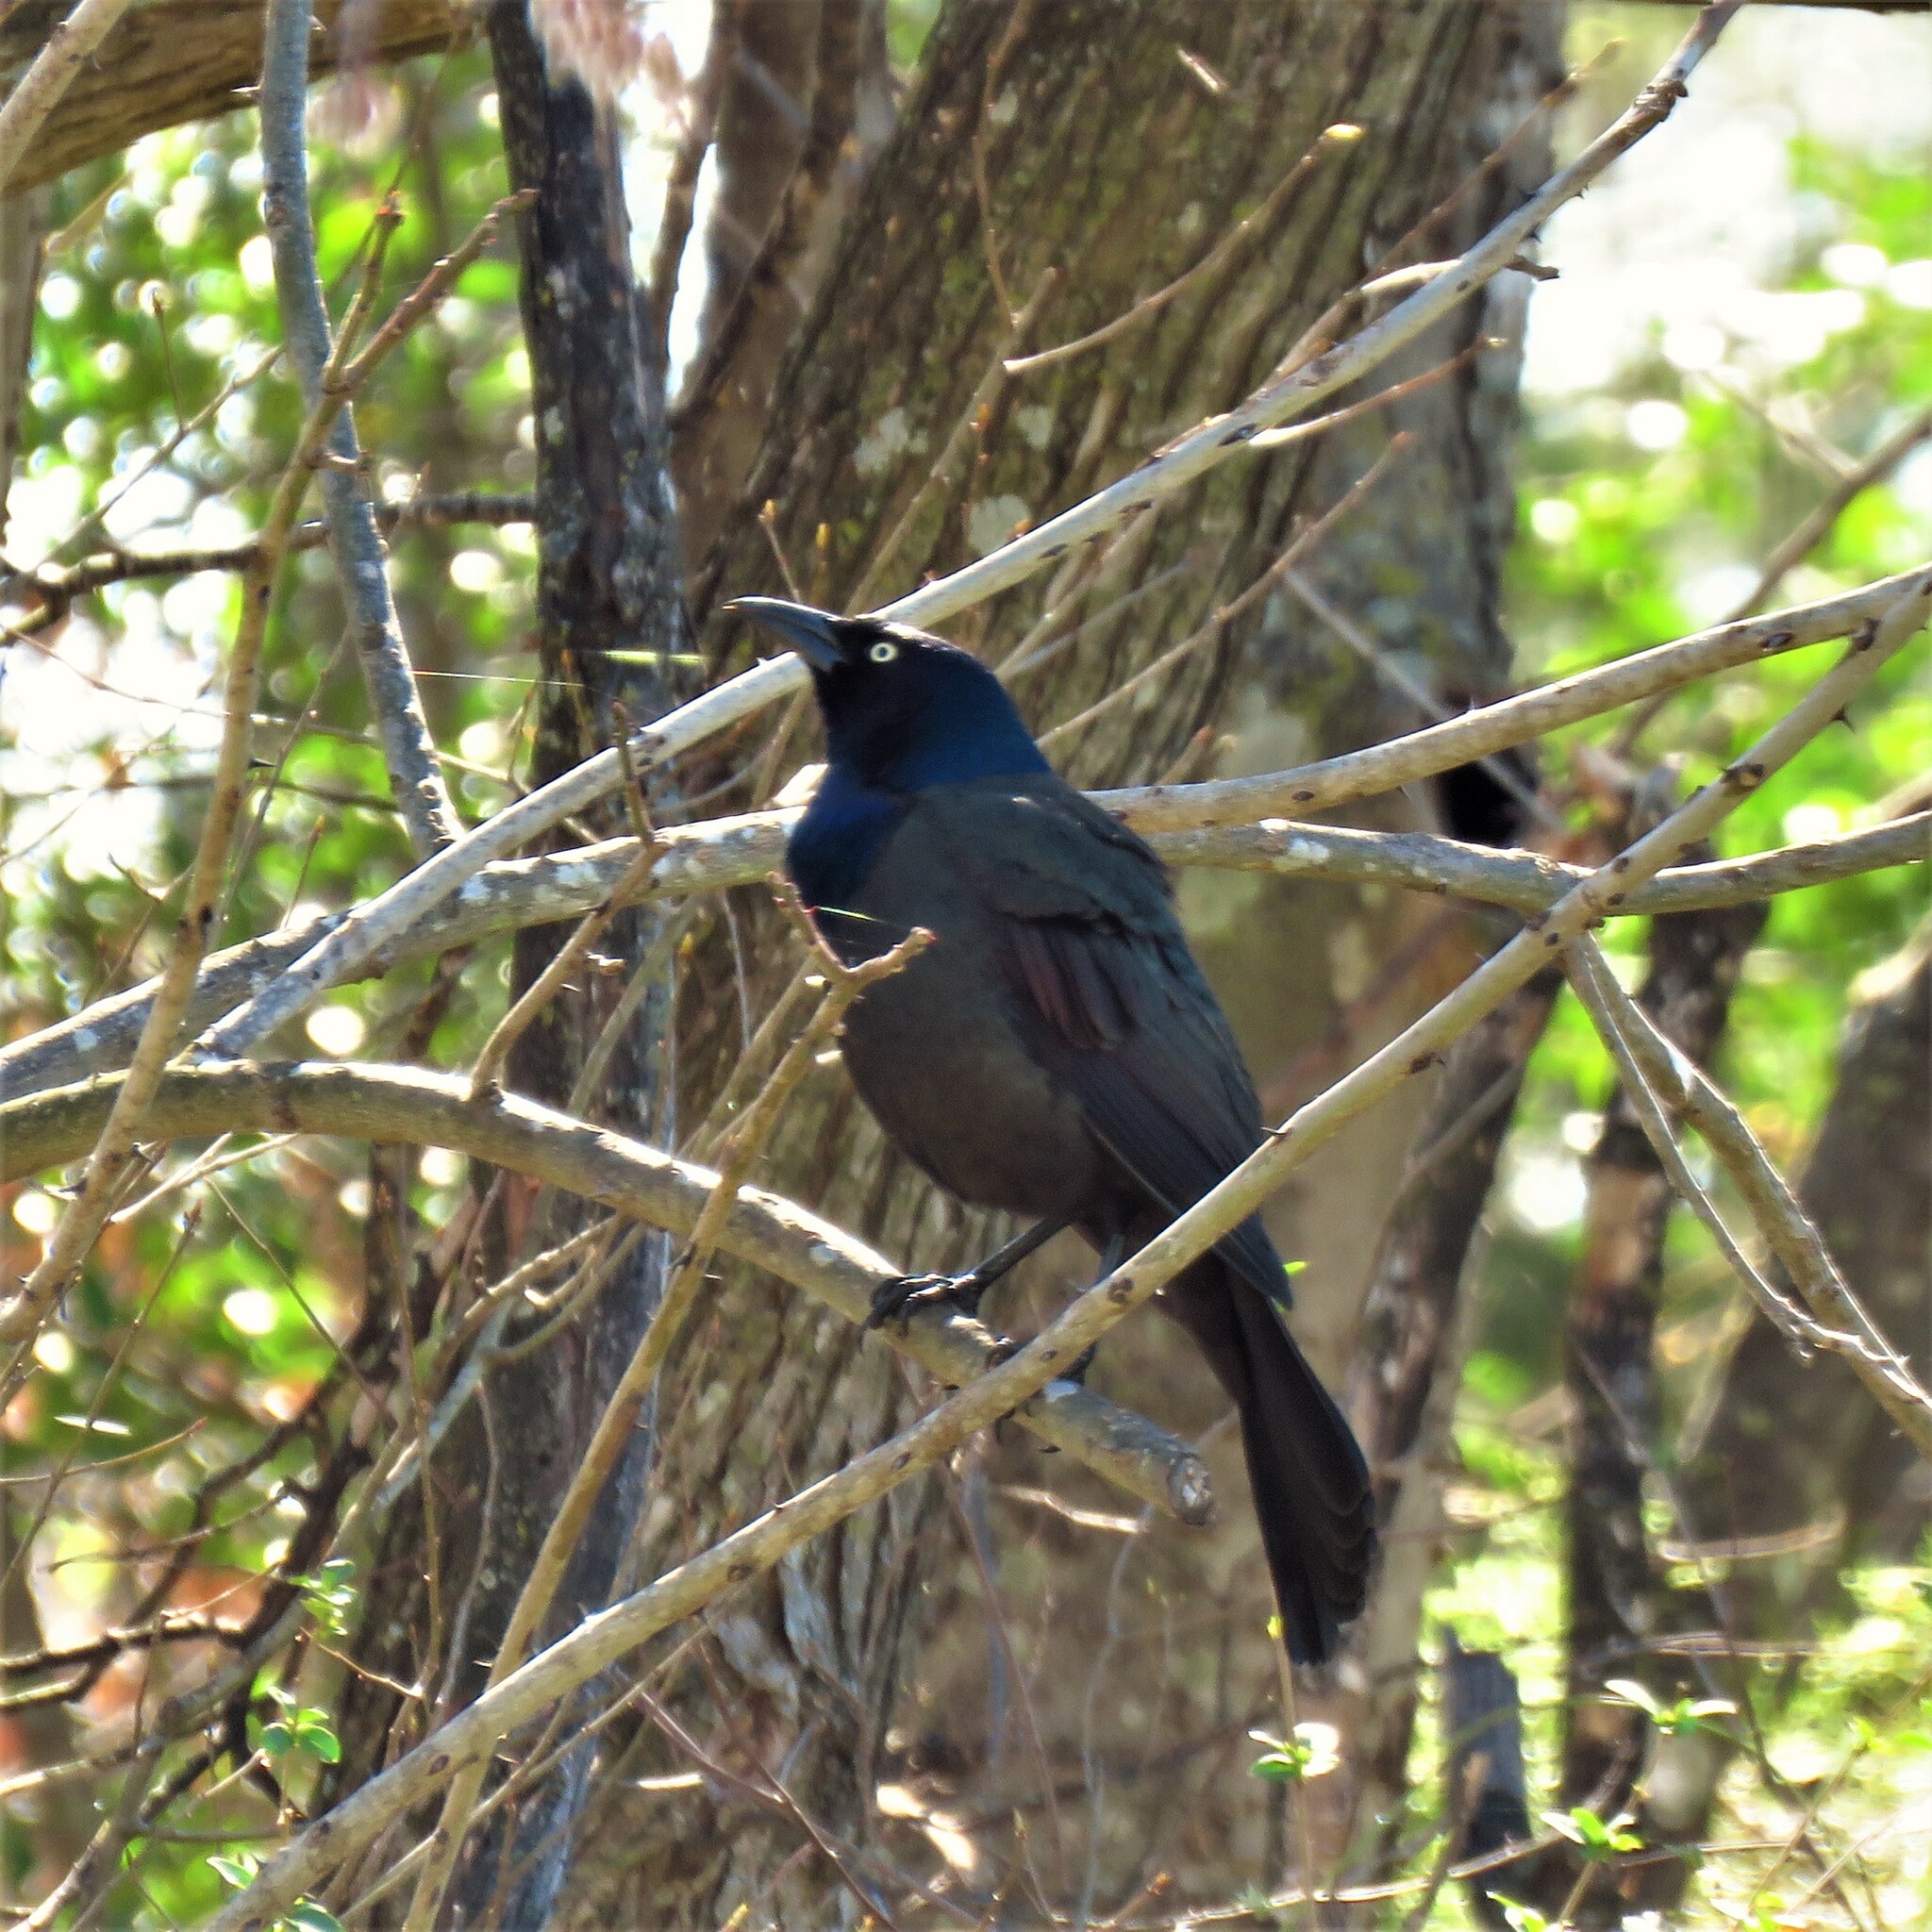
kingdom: Animalia
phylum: Chordata
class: Aves
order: Passeriformes
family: Icteridae
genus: Quiscalus
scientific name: Quiscalus quiscula
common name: Common grackle
